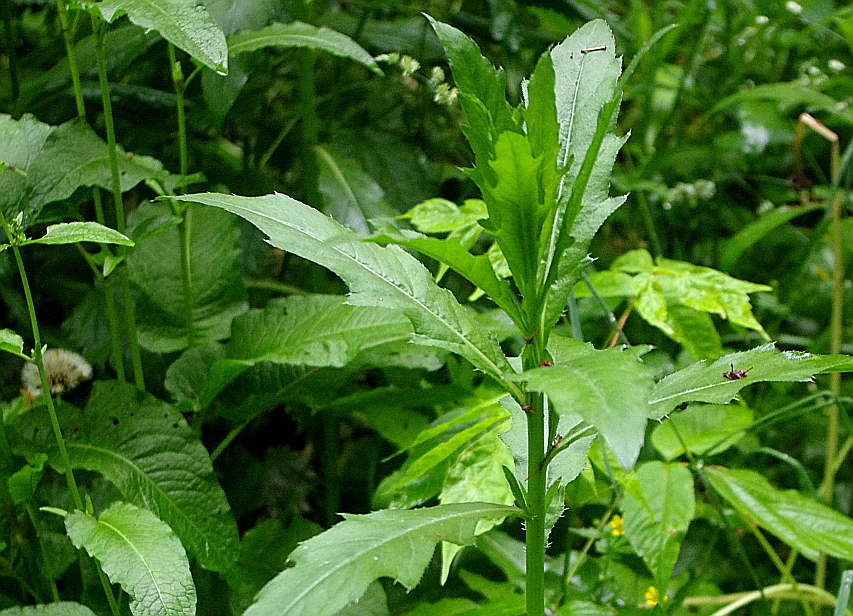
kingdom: Plantae
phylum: Tracheophyta
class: Magnoliopsida
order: Asterales
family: Asteraceae
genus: Cirsium
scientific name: Cirsium arvense
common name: Creeping thistle
